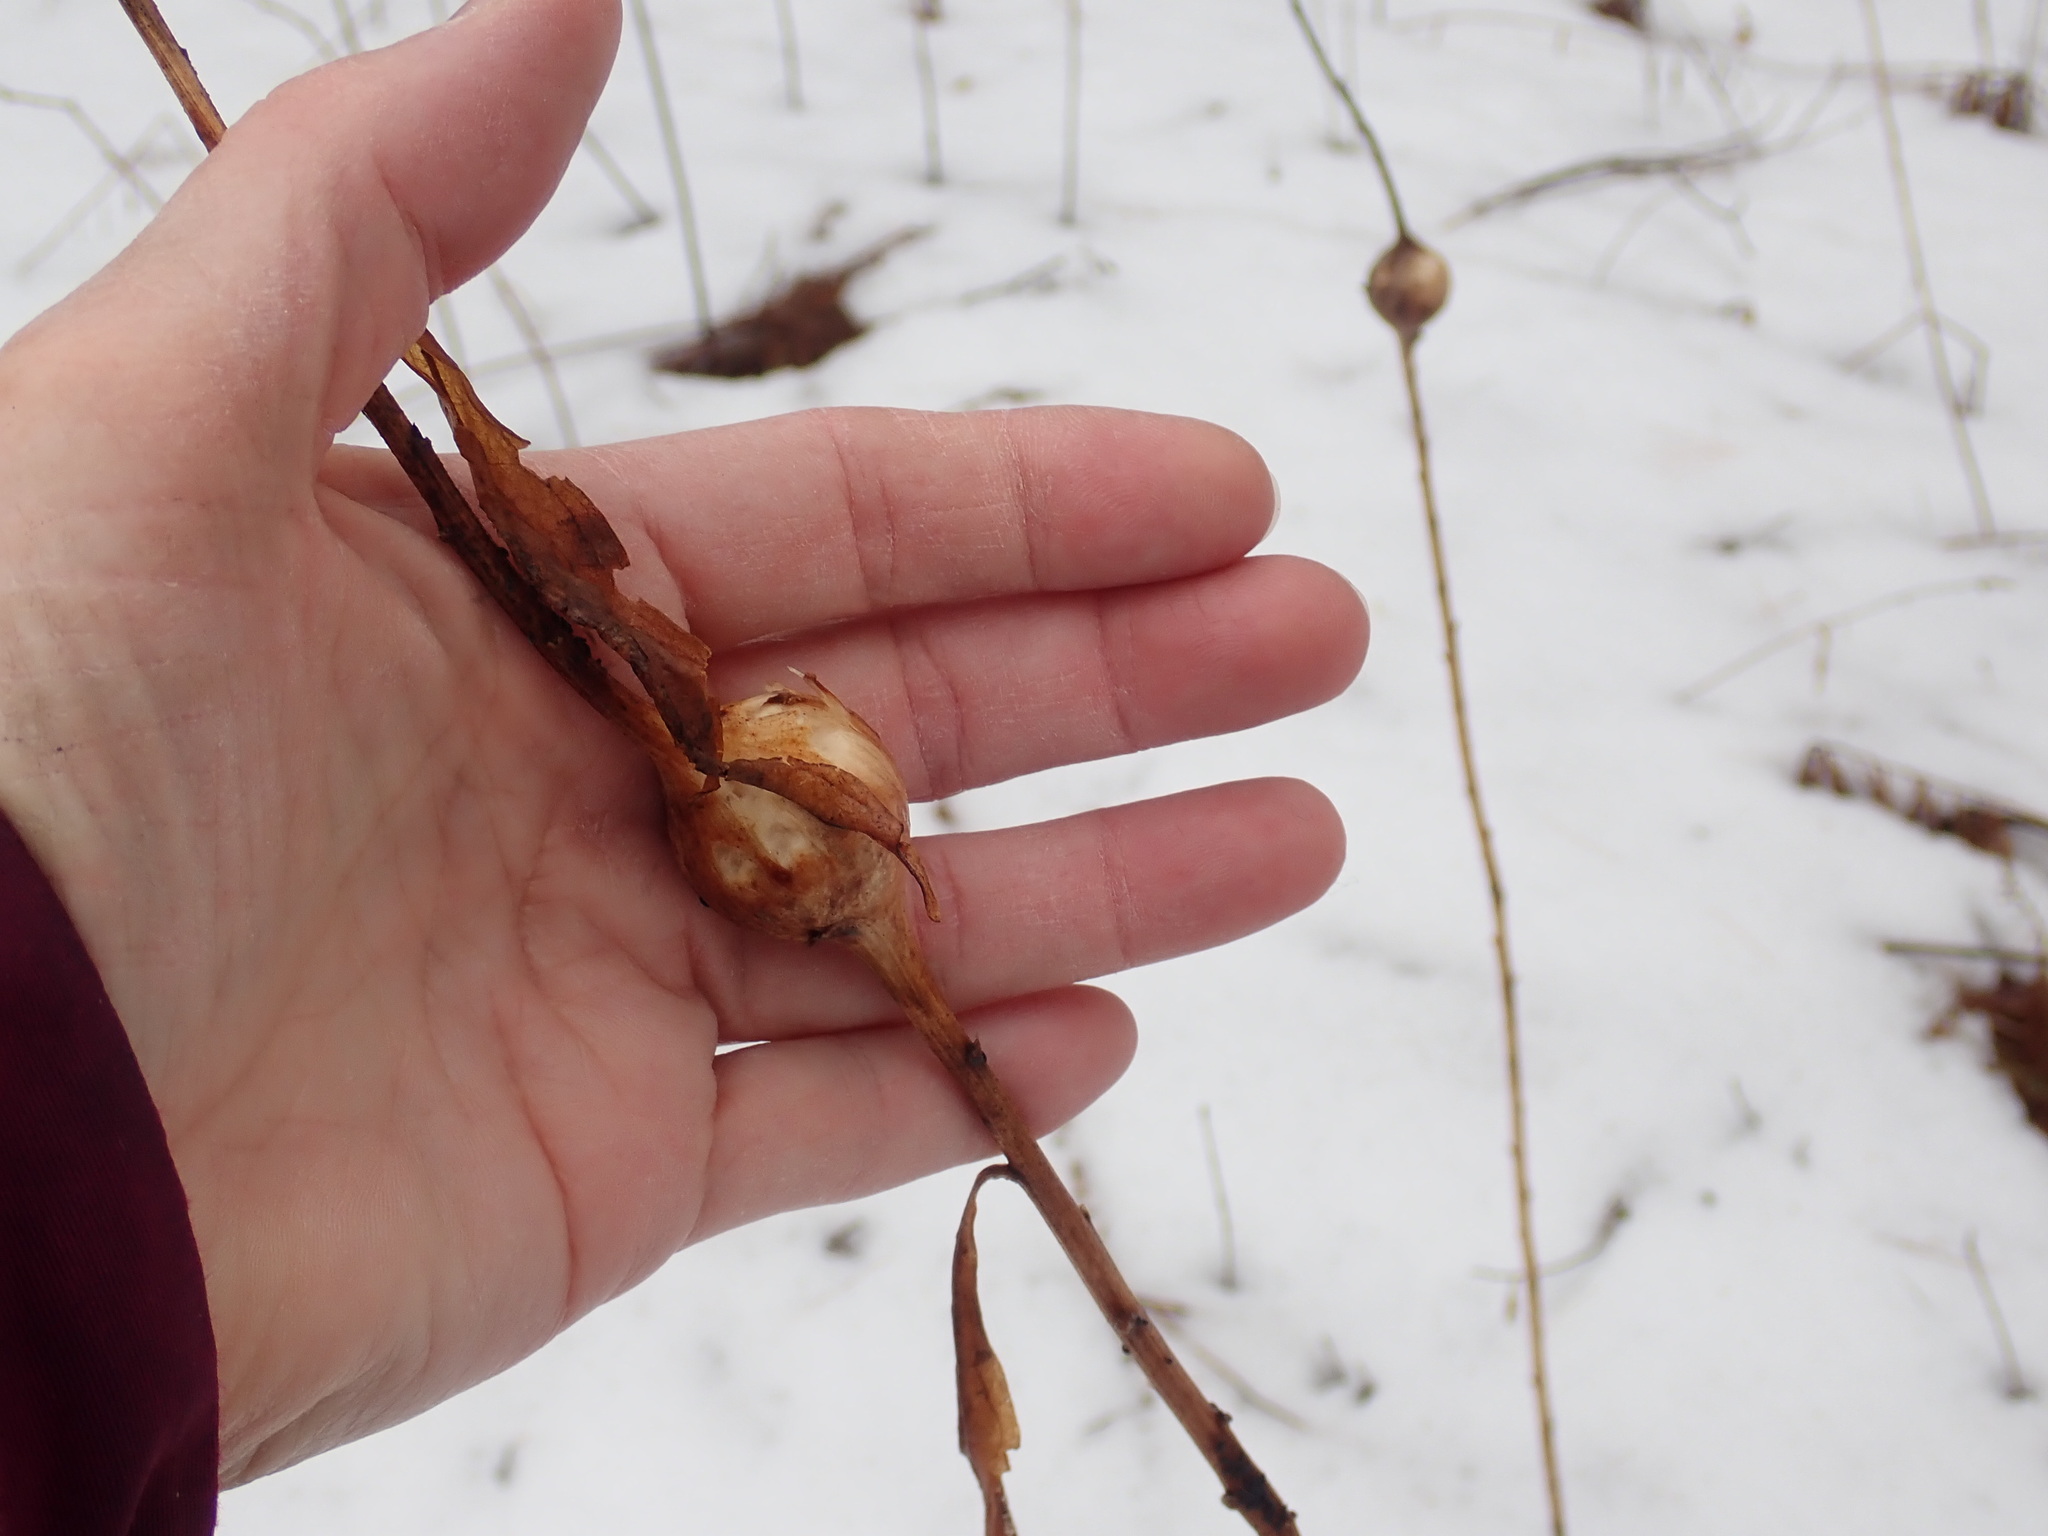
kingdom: Animalia
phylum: Arthropoda
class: Insecta
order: Diptera
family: Tephritidae
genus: Eurosta
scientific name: Eurosta solidaginis
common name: Goldenrod gall fly
